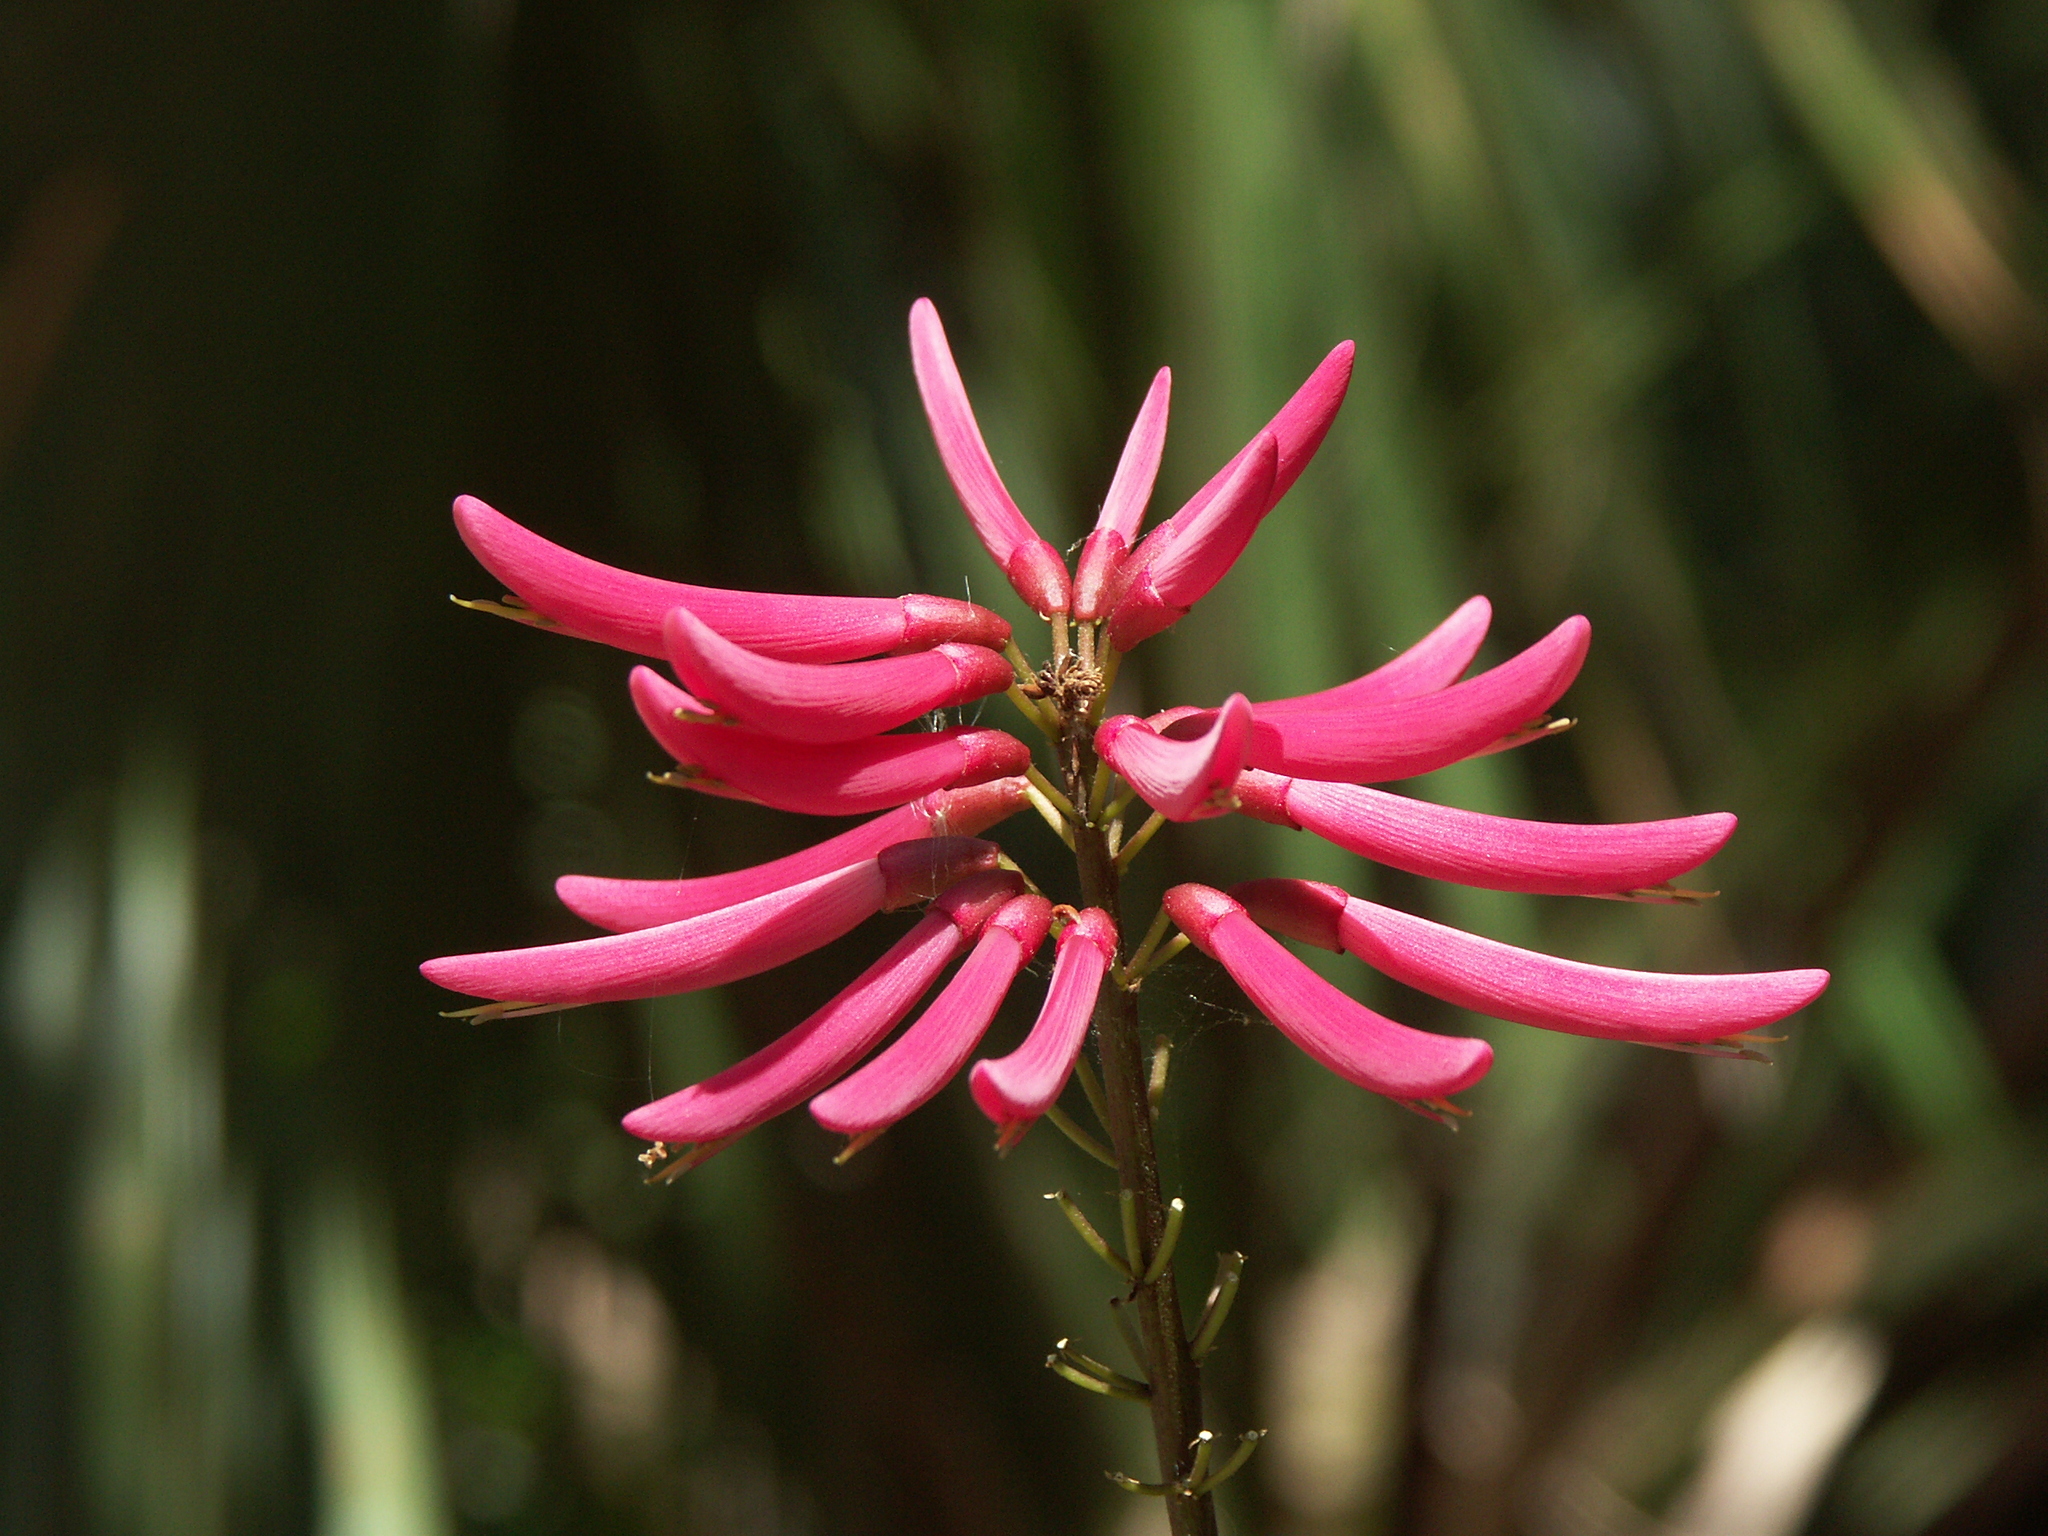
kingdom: Plantae
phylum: Tracheophyta
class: Magnoliopsida
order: Fabales
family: Fabaceae
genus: Erythrina
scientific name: Erythrina herbacea
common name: Coral-bean
